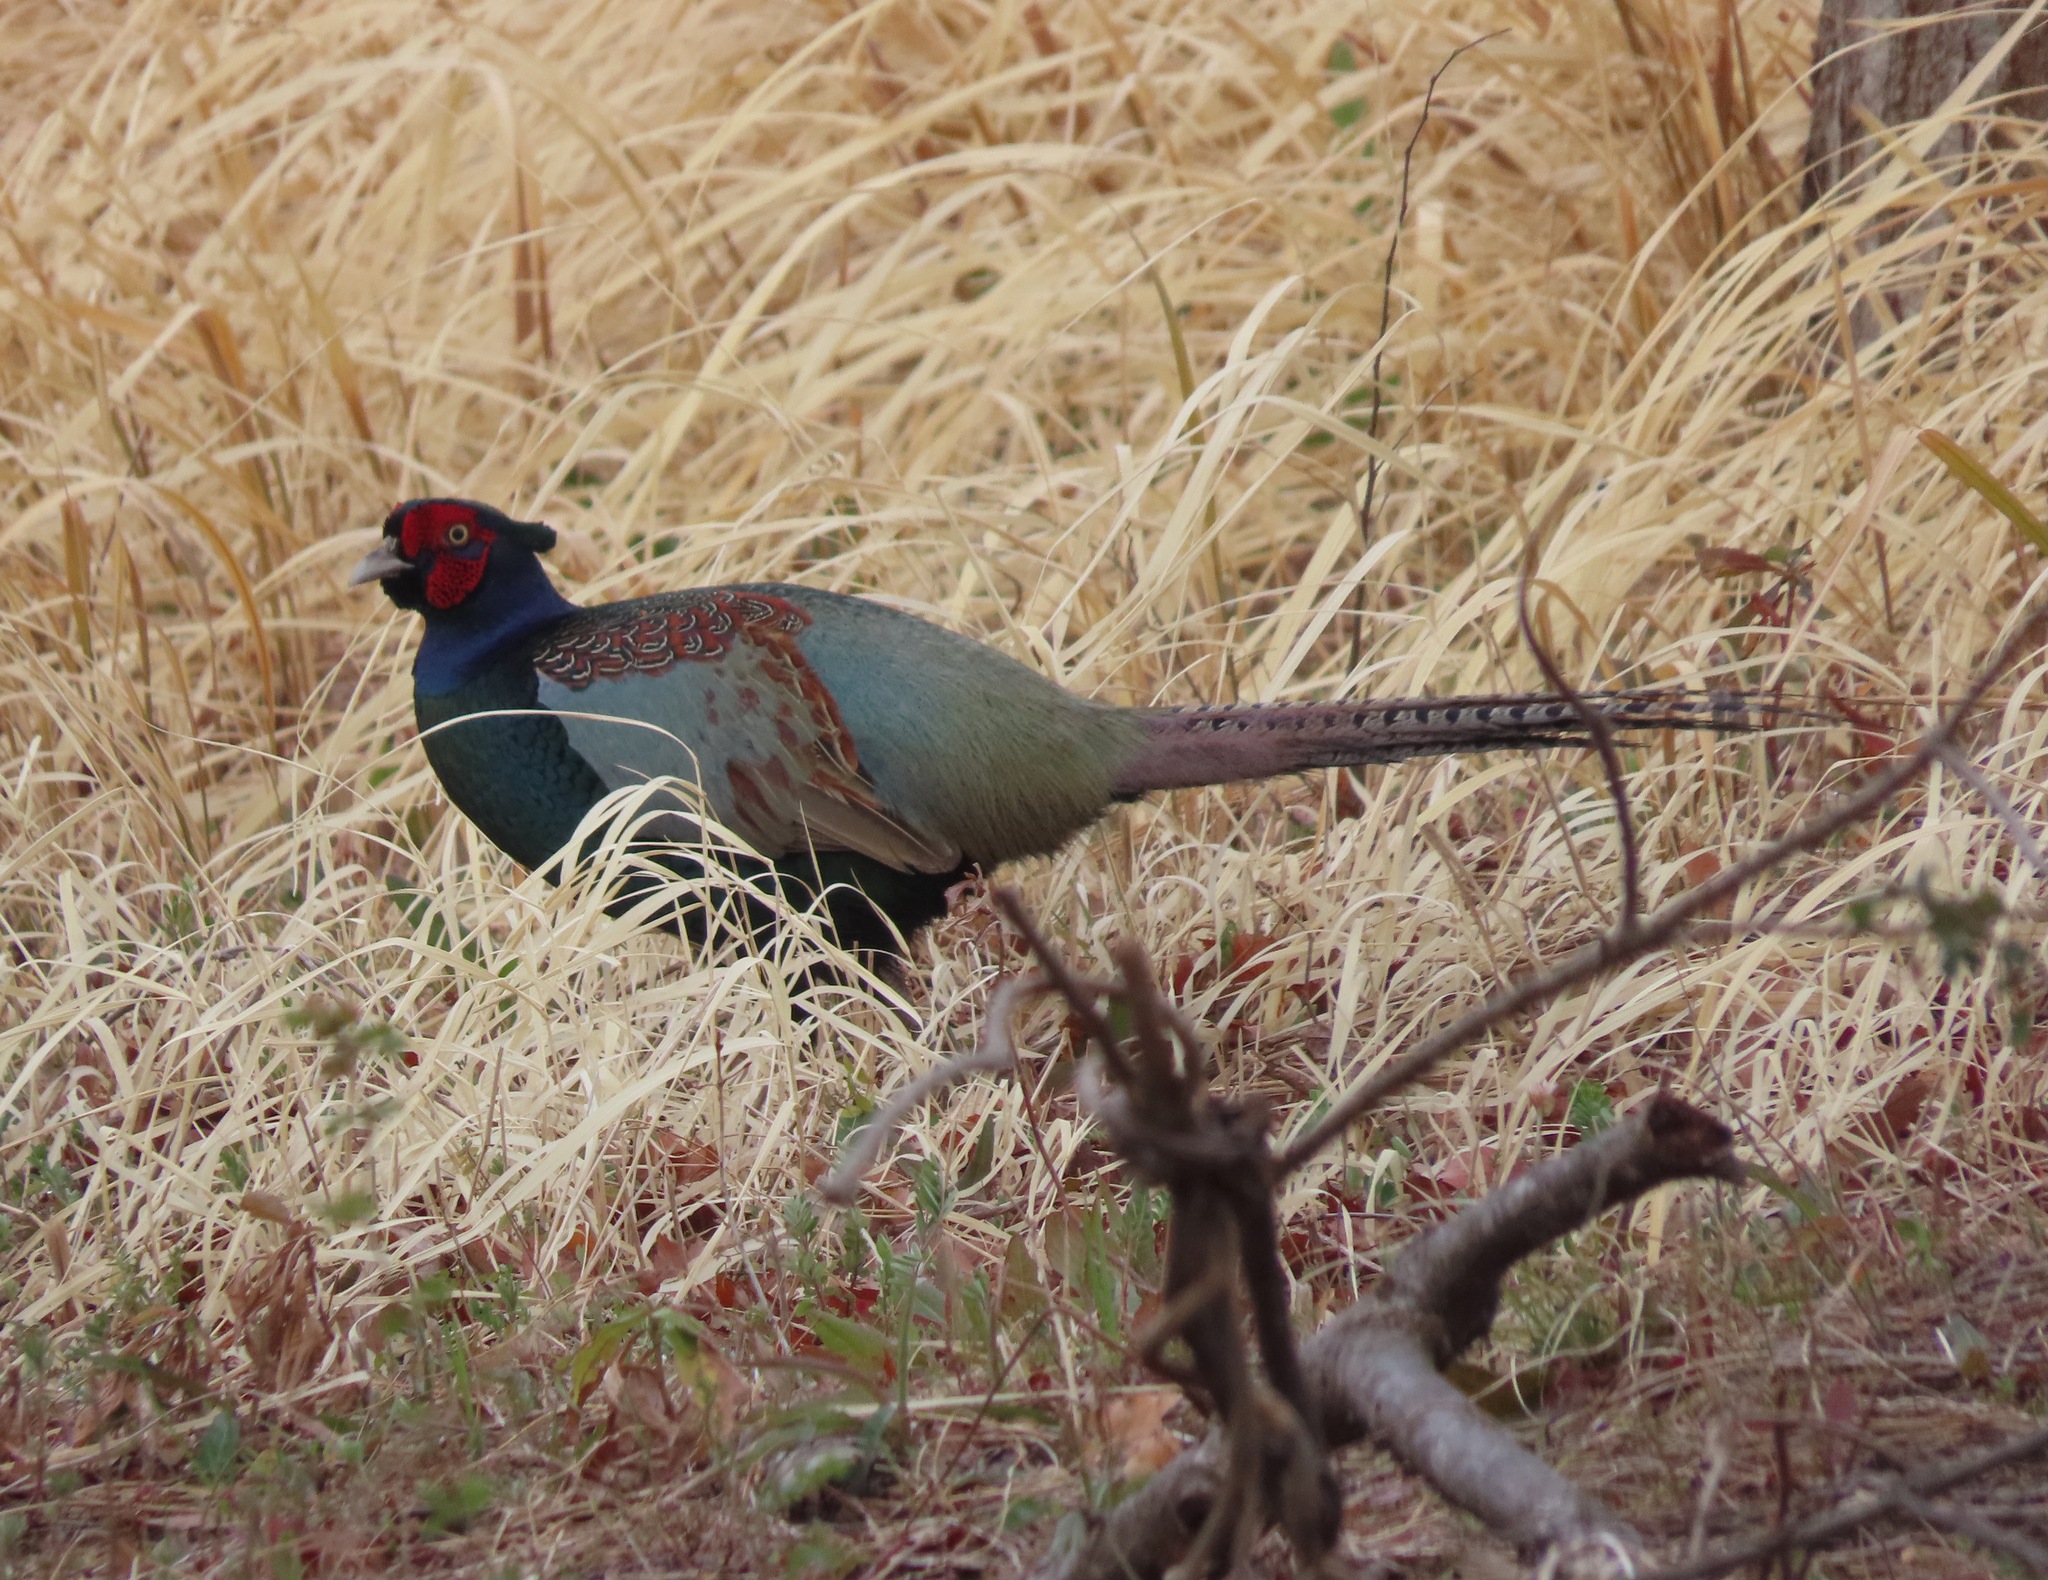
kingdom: Animalia
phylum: Chordata
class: Aves
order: Galliformes
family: Phasianidae
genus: Phasianus
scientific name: Phasianus versicolor
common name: Green pheasant
